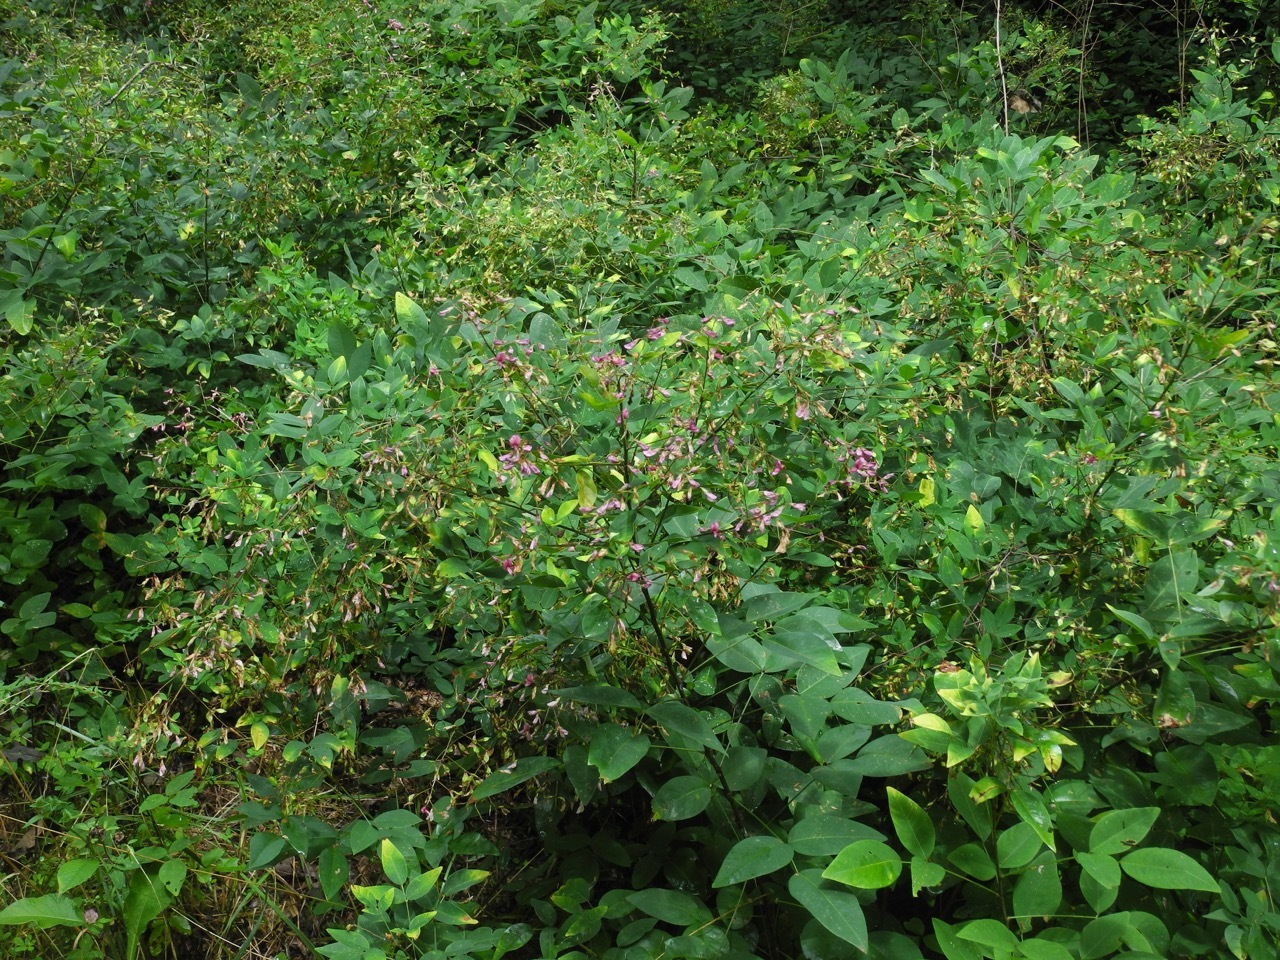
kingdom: Plantae
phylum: Tracheophyta
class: Magnoliopsida
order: Fabales
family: Fabaceae
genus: Lespedeza
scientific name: Lespedeza bicolor
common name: Shrub lespedeza
